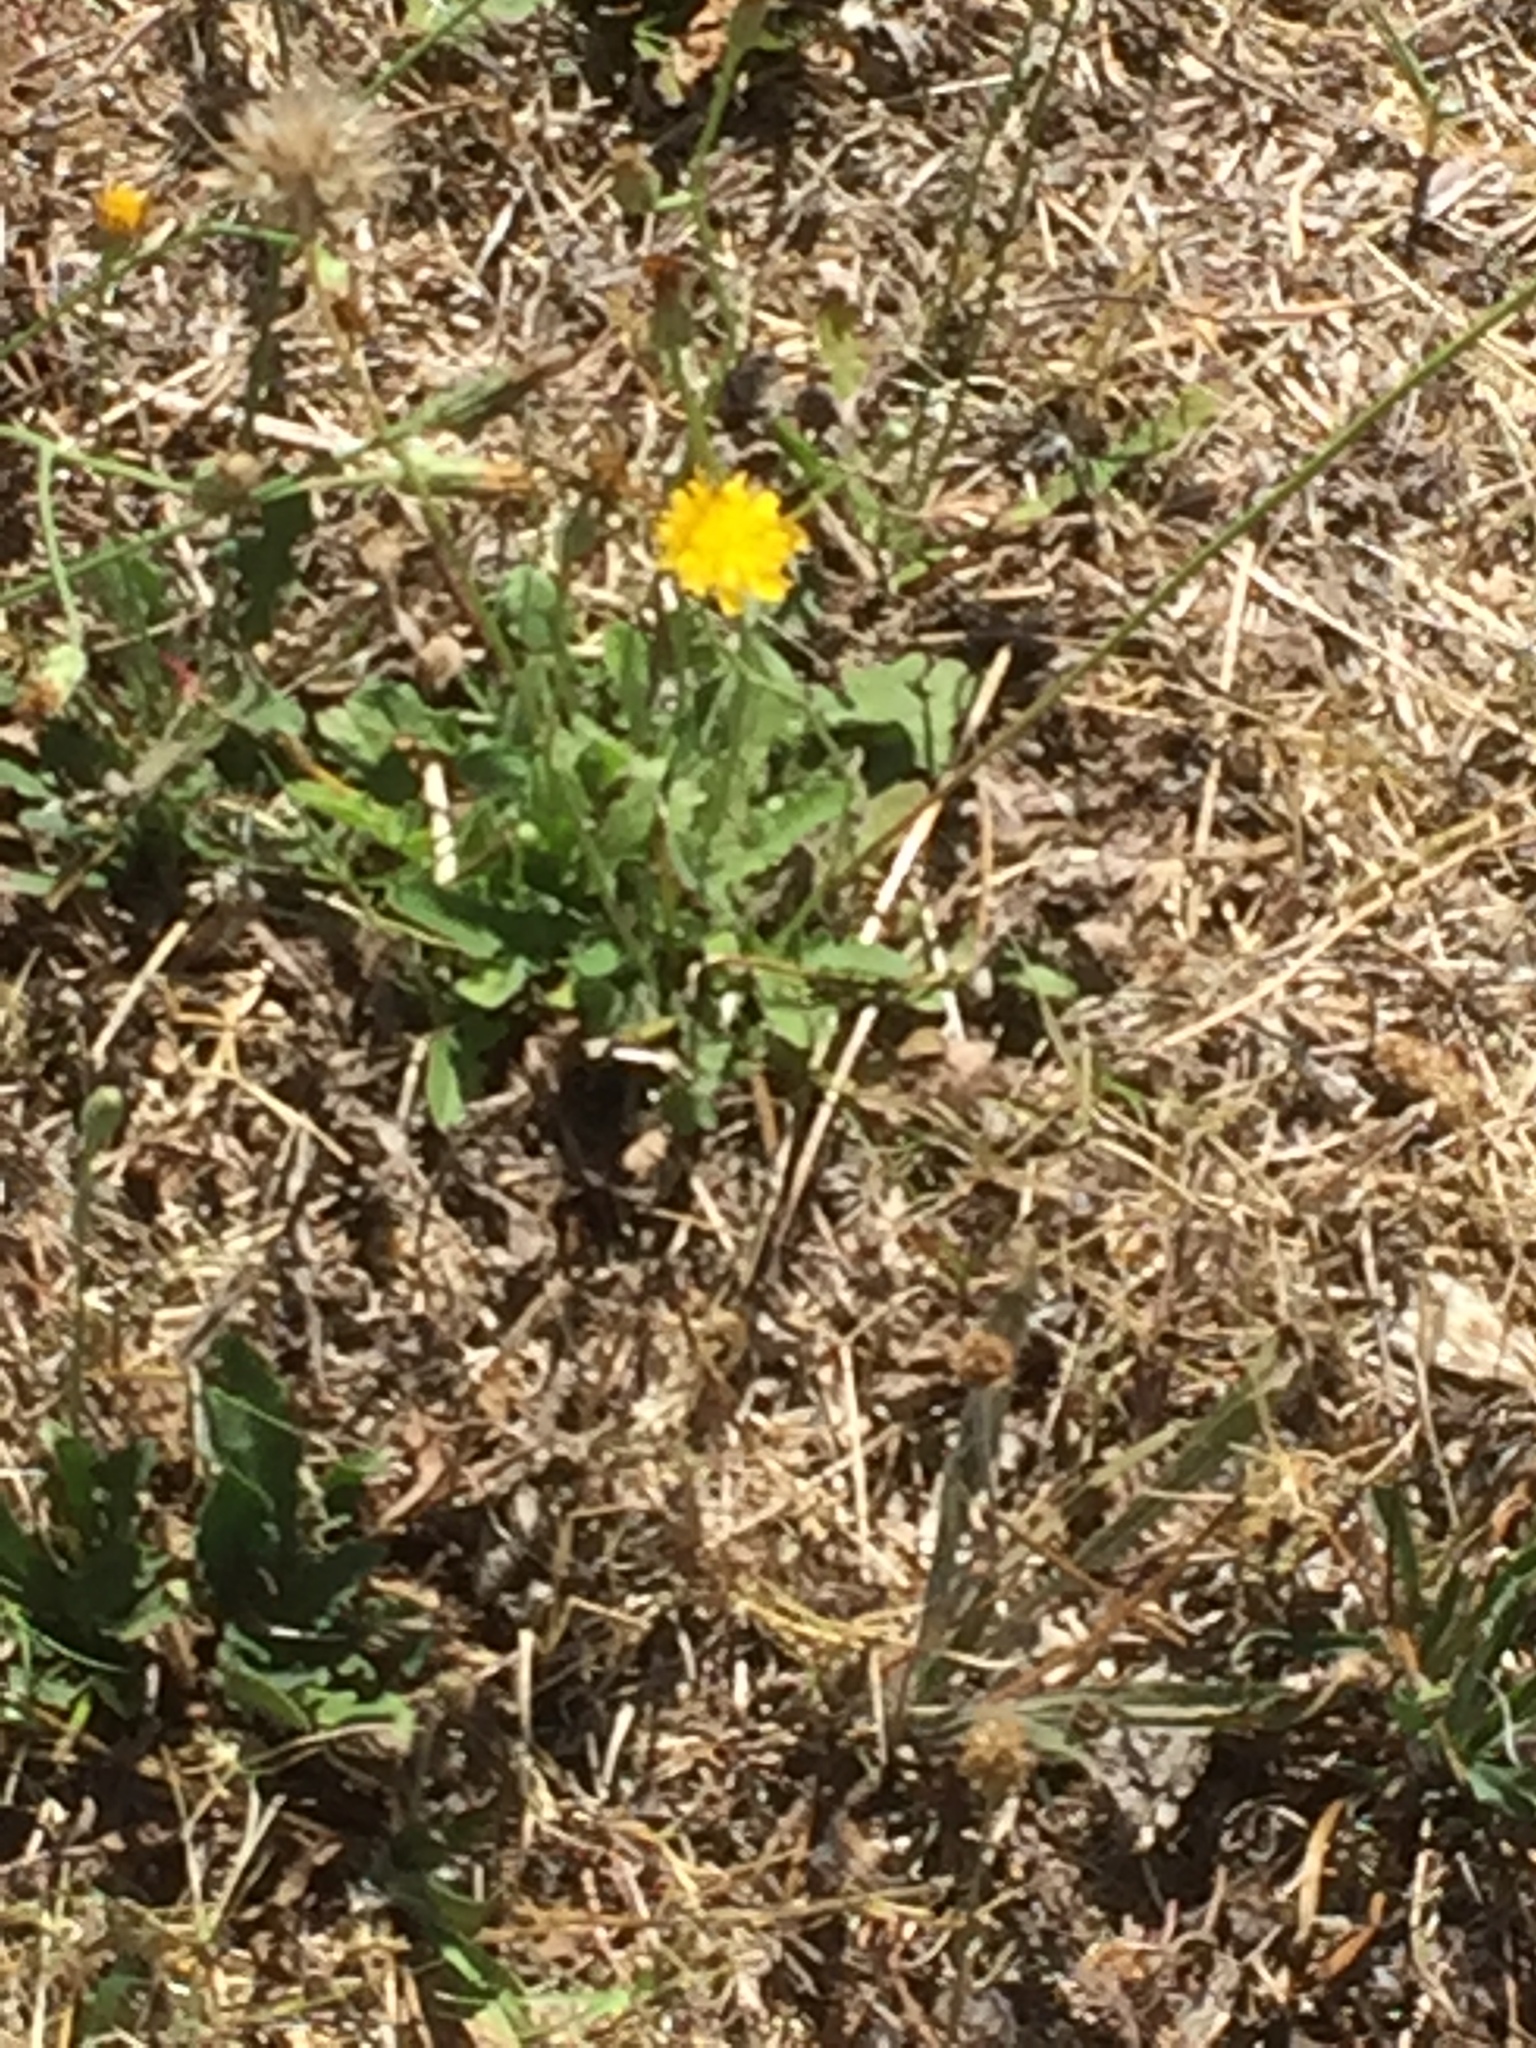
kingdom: Plantae
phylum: Tracheophyta
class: Magnoliopsida
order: Asterales
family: Asteraceae
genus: Hypochaeris
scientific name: Hypochaeris radicata
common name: Flatweed
